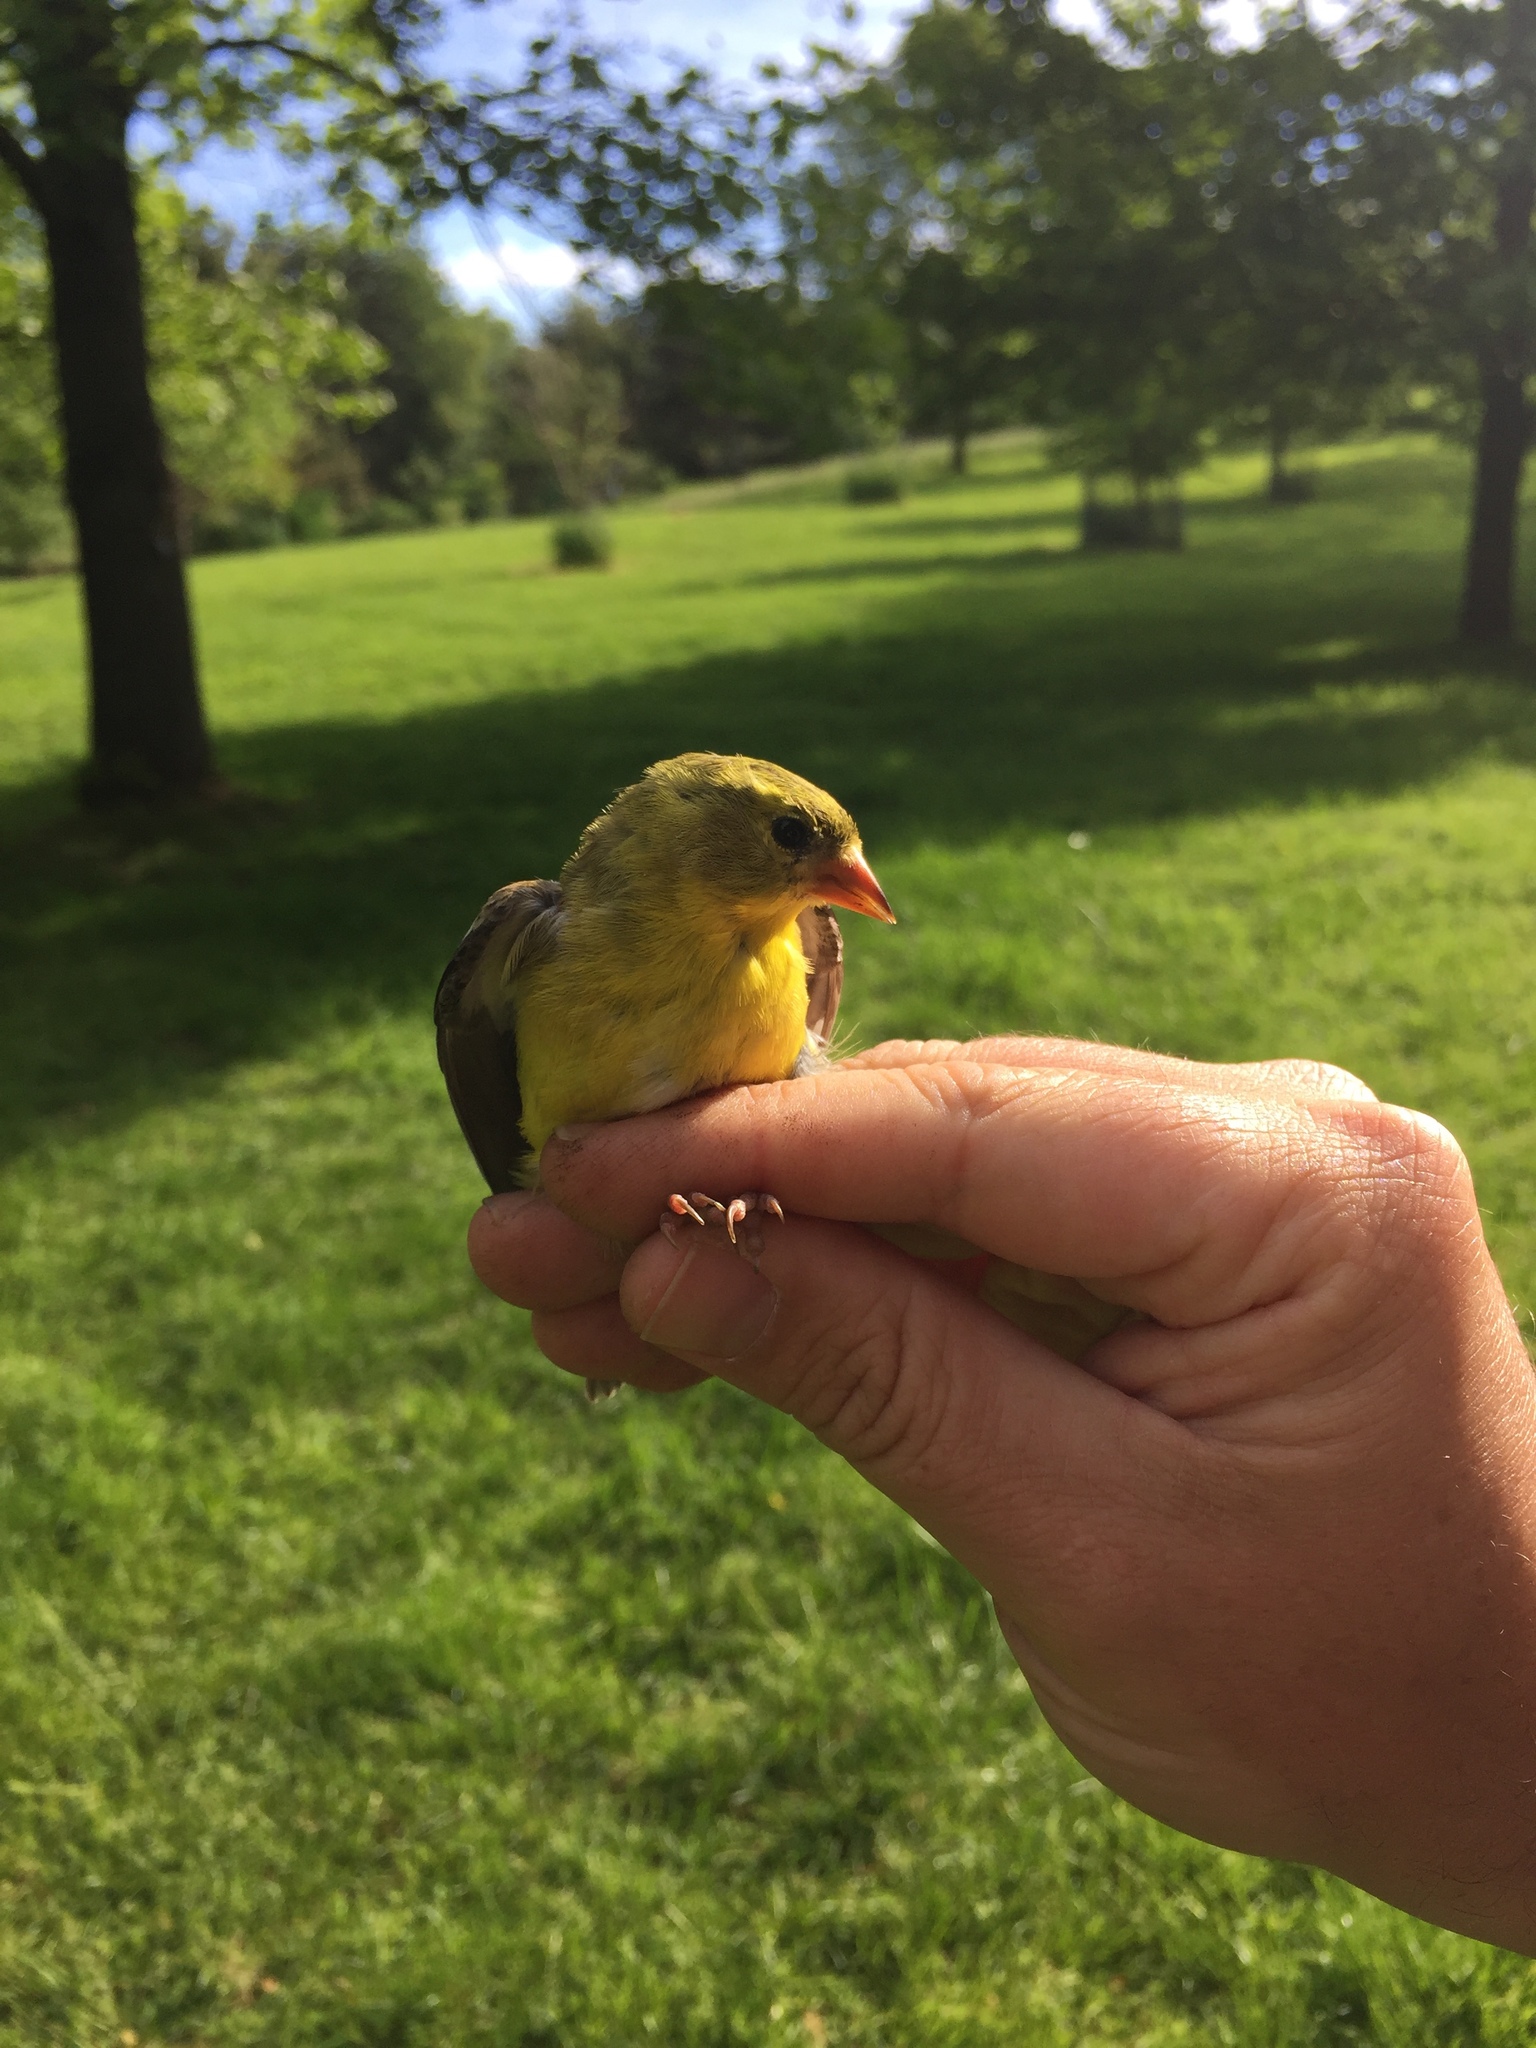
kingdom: Animalia
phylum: Chordata
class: Aves
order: Passeriformes
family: Fringillidae
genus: Spinus
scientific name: Spinus tristis
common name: American goldfinch
